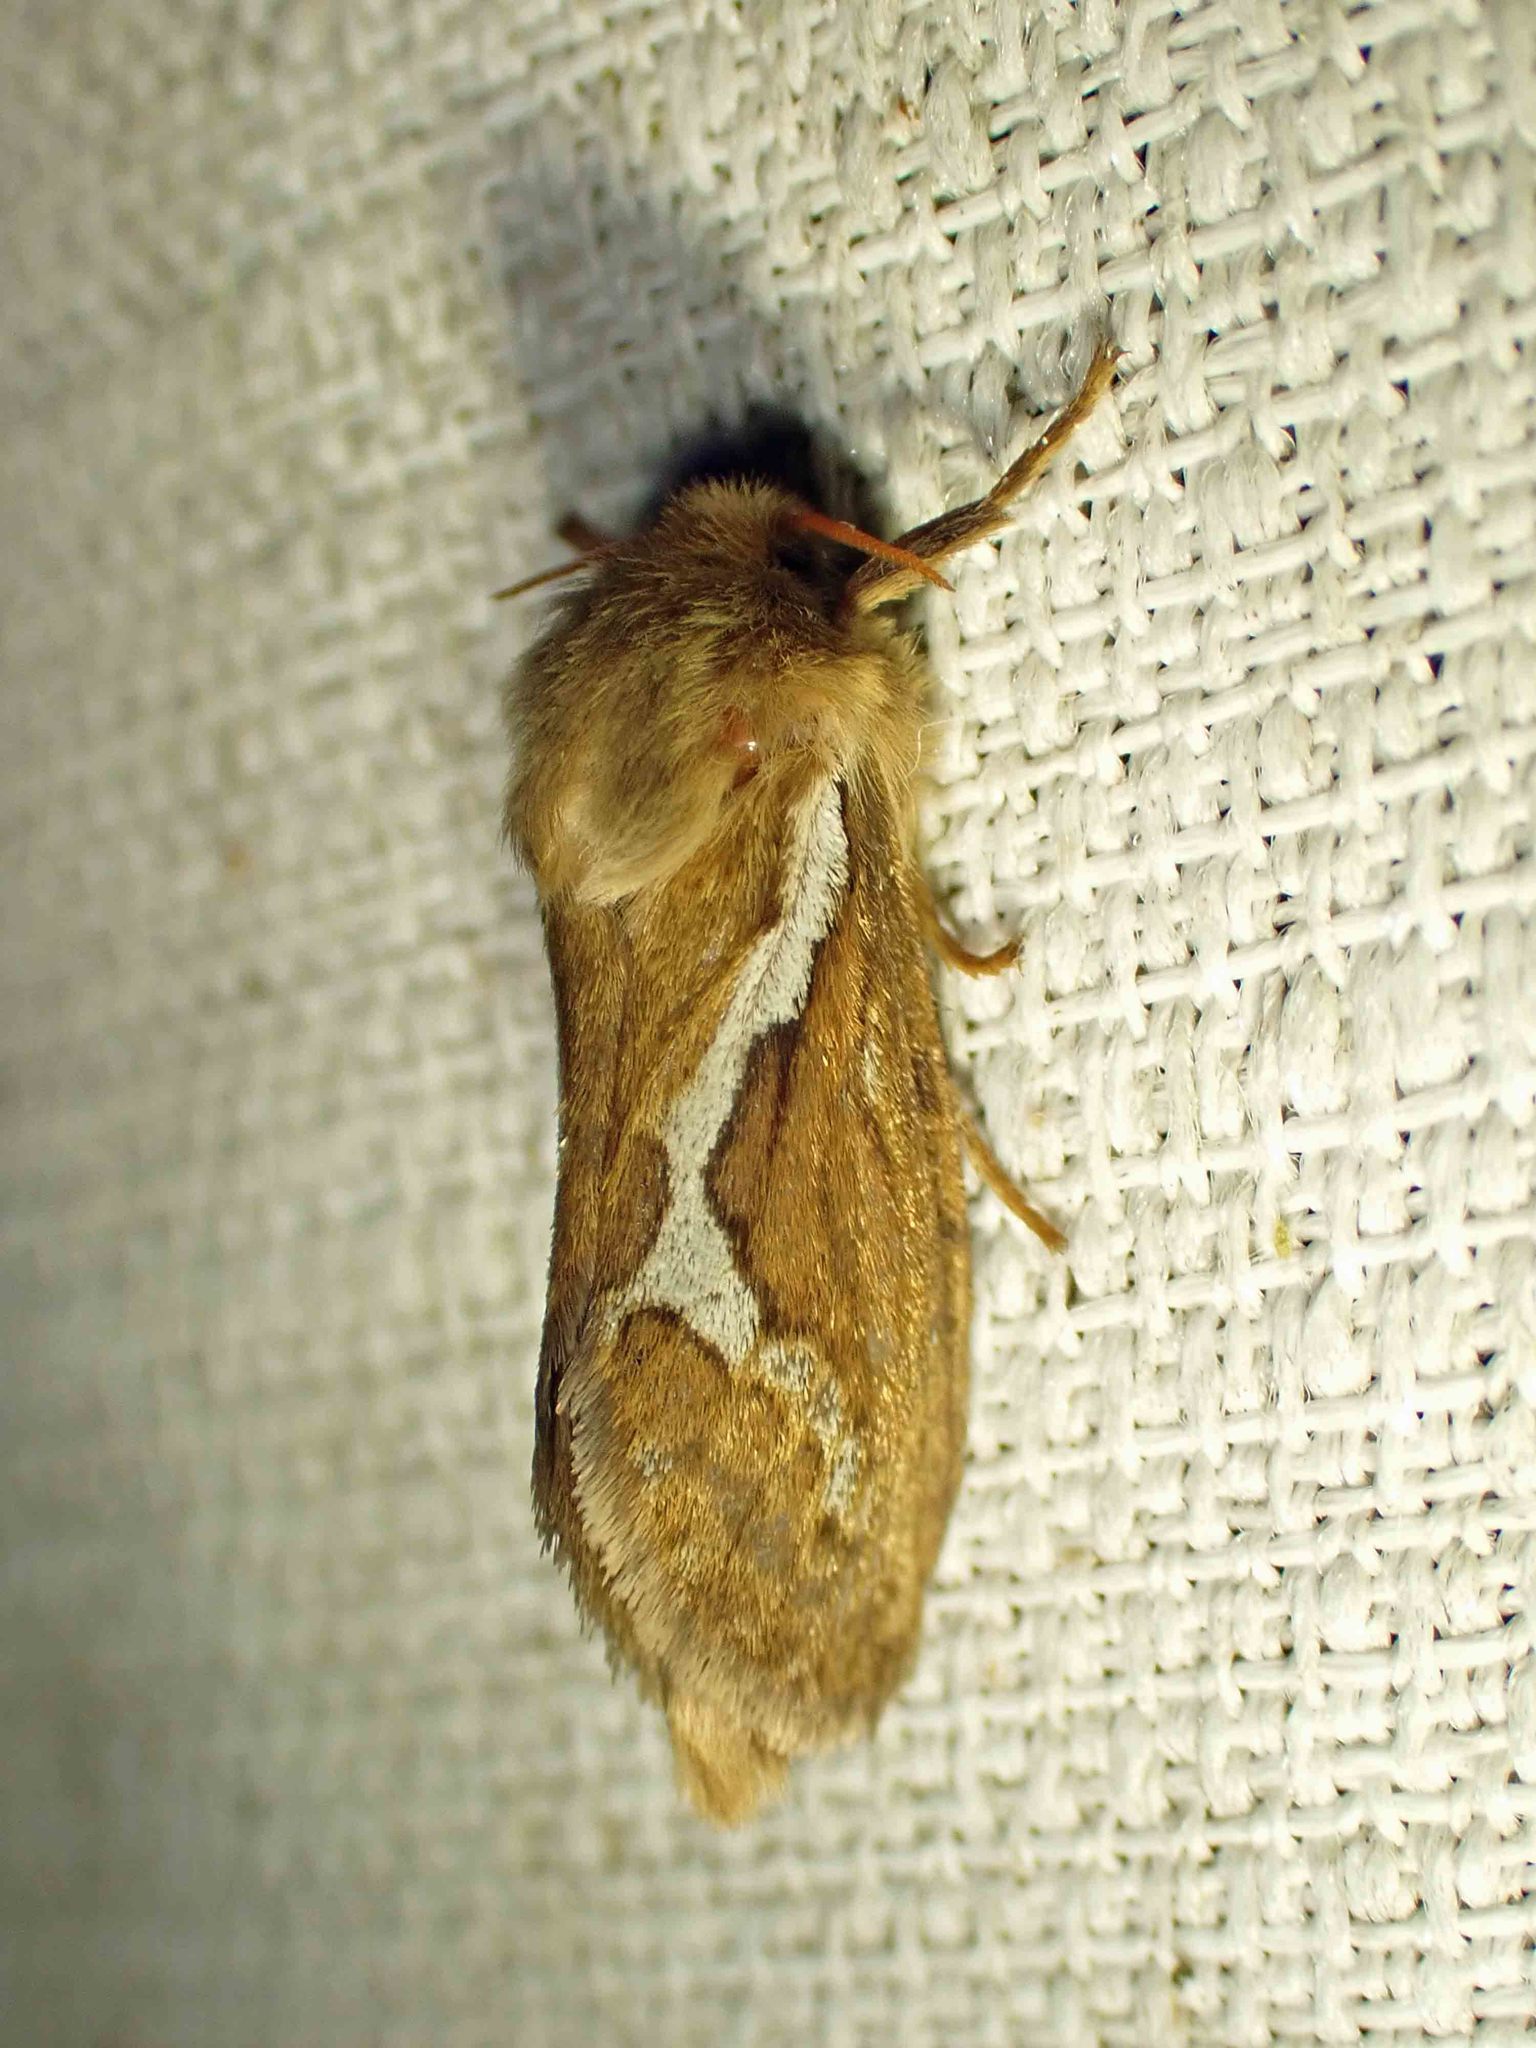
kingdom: Animalia
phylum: Arthropoda
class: Insecta
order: Lepidoptera
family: Hepialidae
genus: Korscheltellus
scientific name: Korscheltellus lupulina
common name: Common swift
